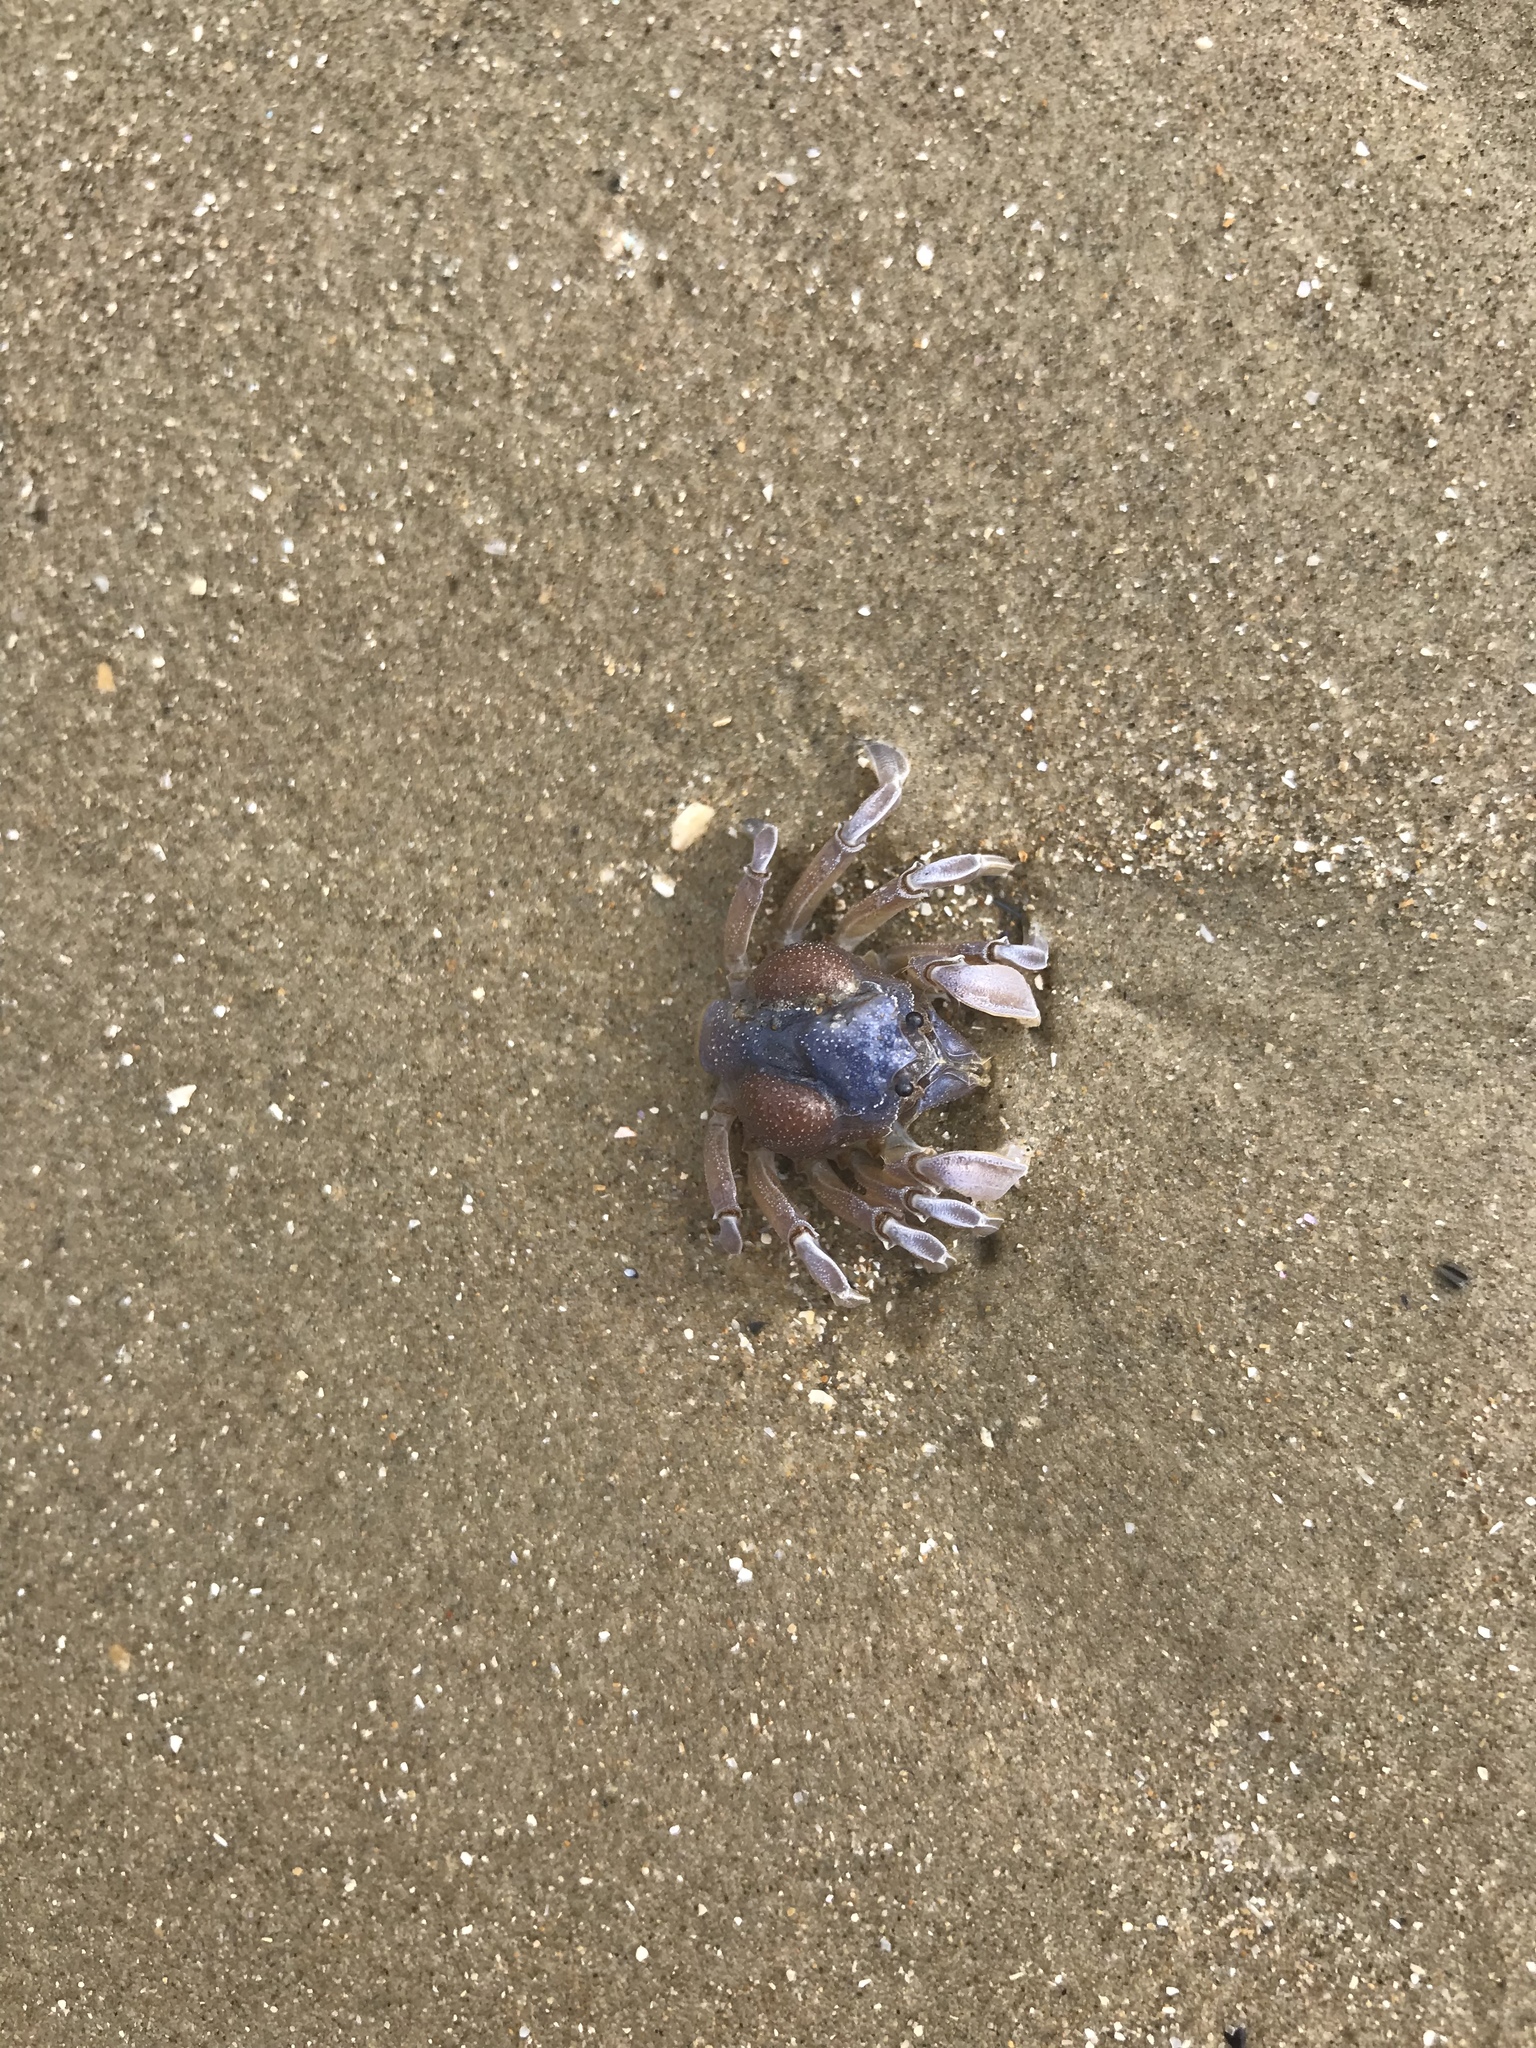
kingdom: Animalia
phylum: Arthropoda
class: Malacostraca
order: Decapoda
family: Mictyridae
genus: Mictyris
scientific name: Mictyris platycheles
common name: Dark blue soldier crab
